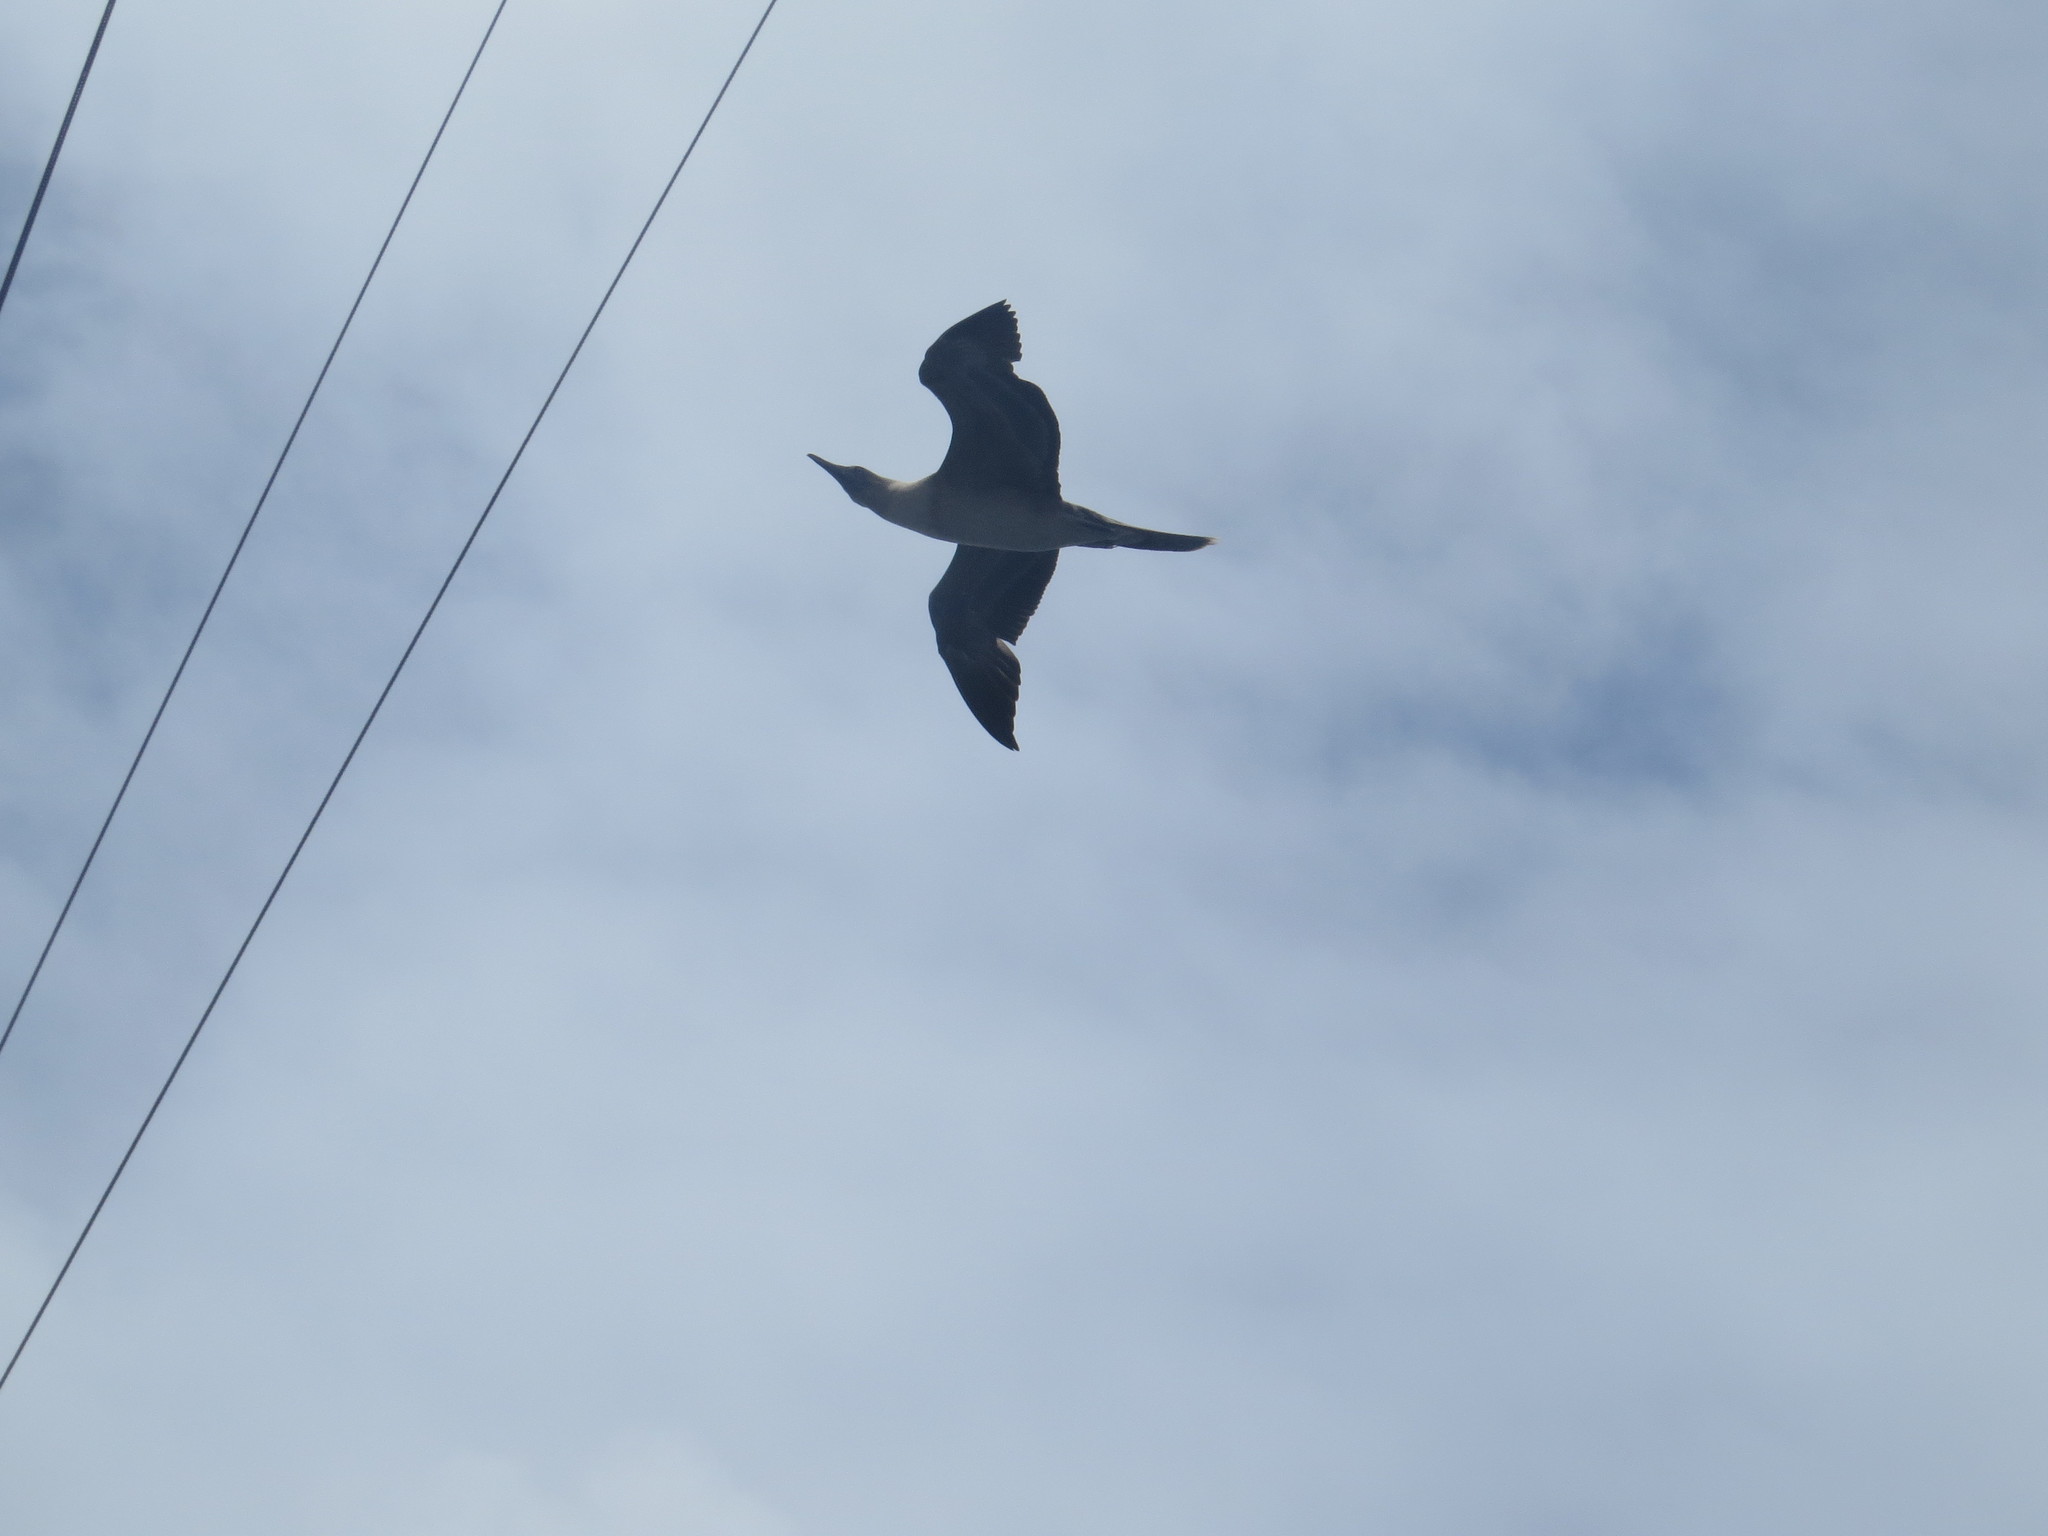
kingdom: Animalia
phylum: Chordata
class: Aves
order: Suliformes
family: Sulidae
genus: Sula
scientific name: Sula sula
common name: Red-footed booby
